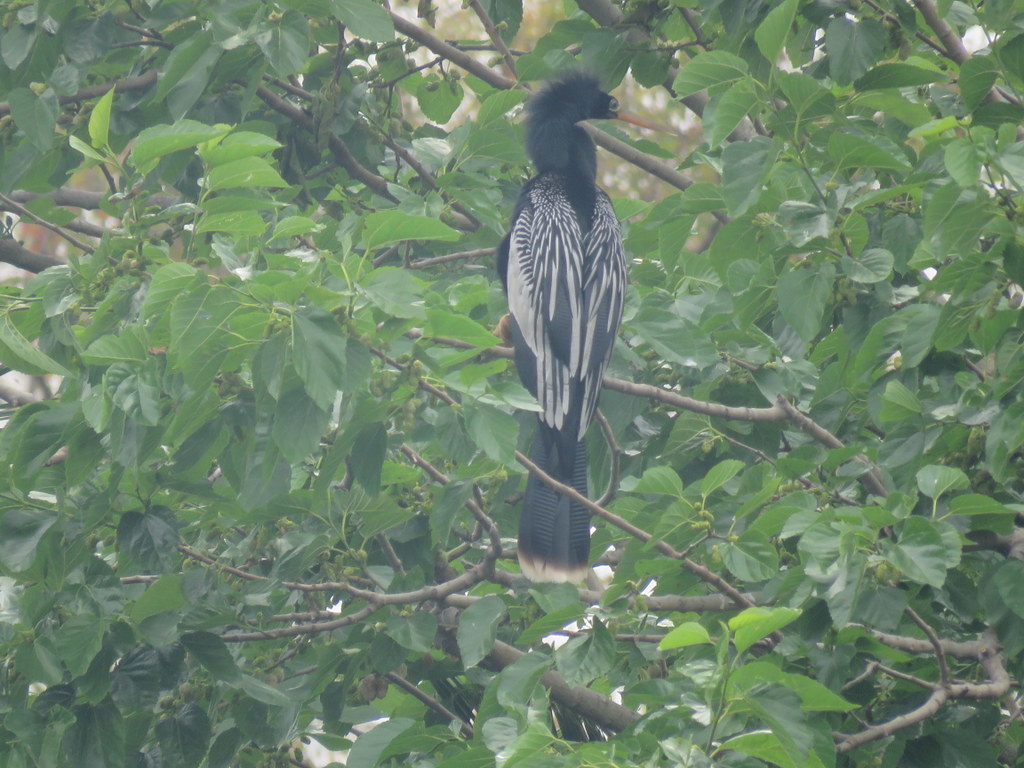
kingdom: Animalia
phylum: Chordata
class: Aves
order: Suliformes
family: Anhingidae
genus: Anhinga
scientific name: Anhinga anhinga
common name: Anhinga
